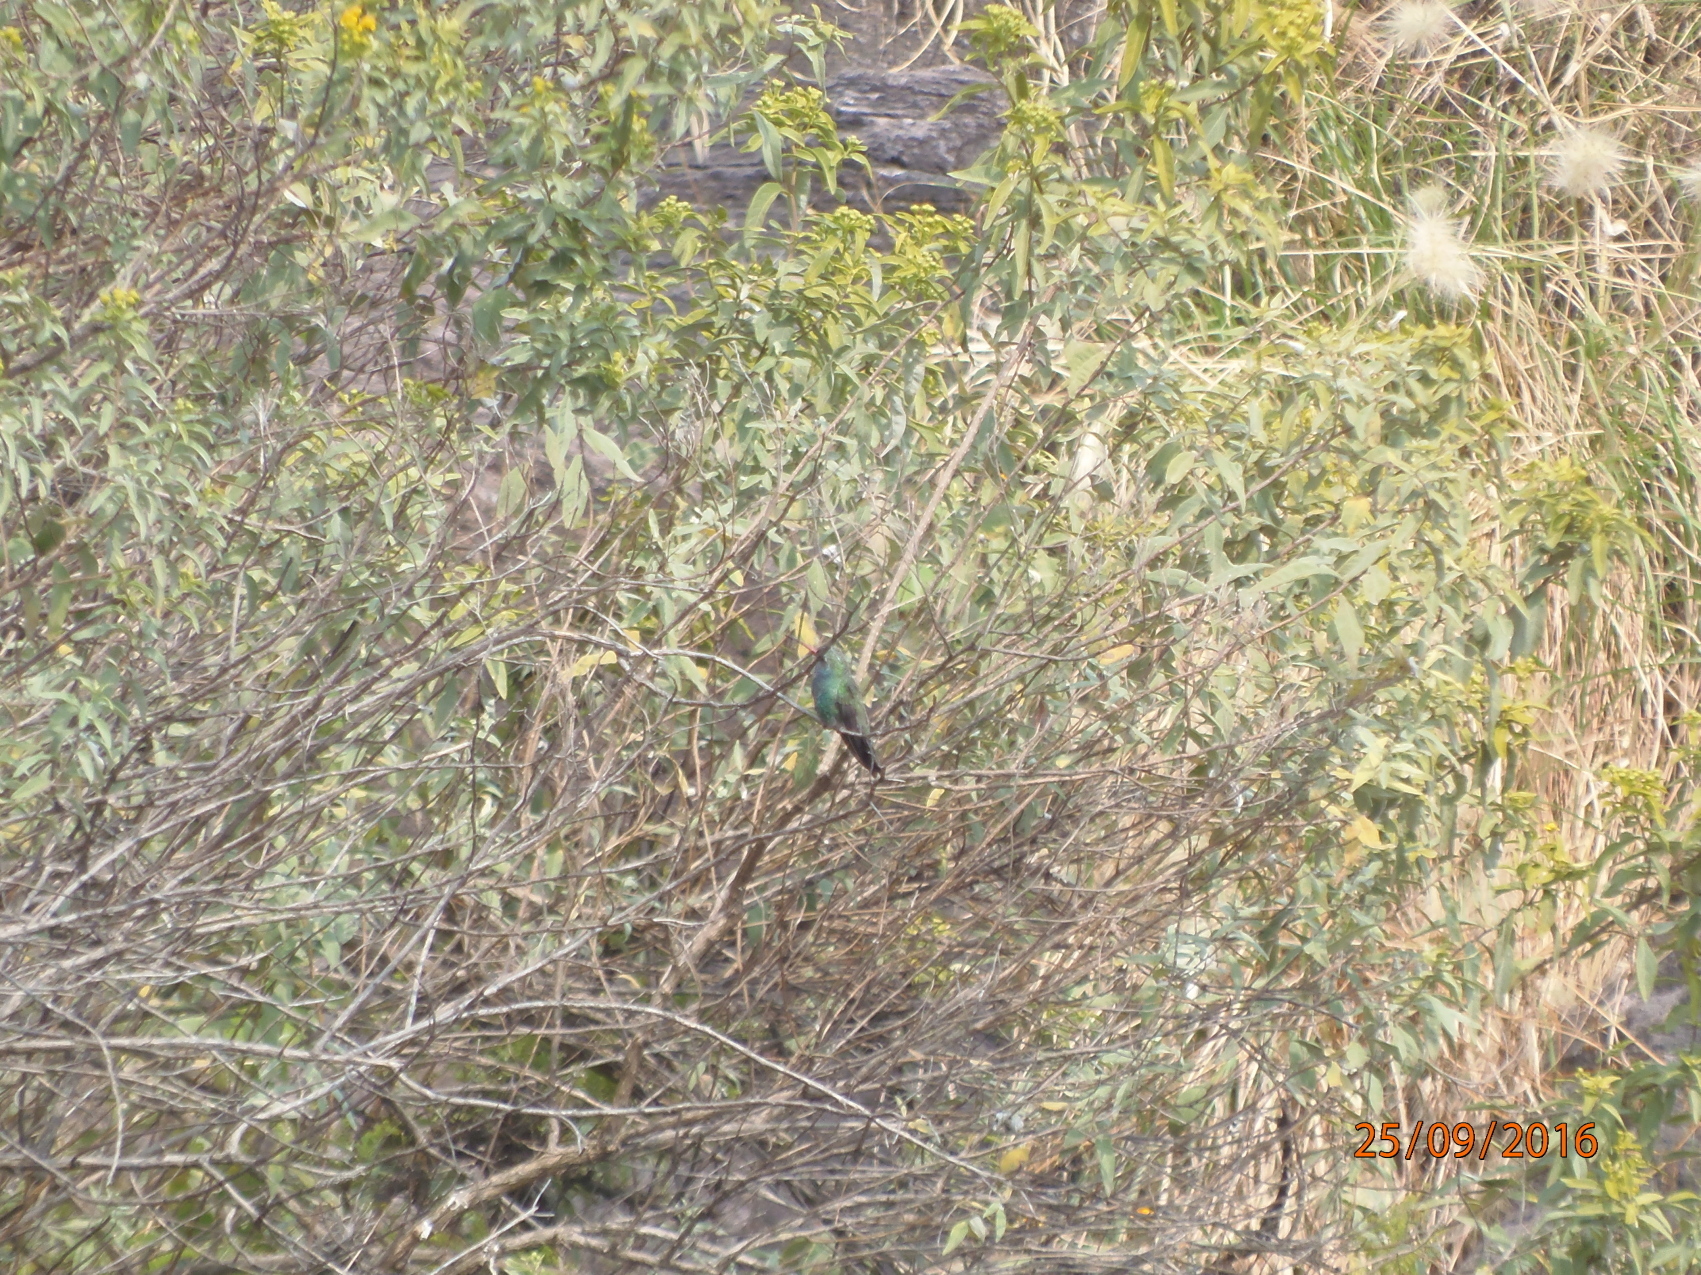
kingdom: Animalia
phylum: Chordata
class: Aves
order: Apodiformes
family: Trochilidae
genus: Cynanthus
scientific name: Cynanthus latirostris
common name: Broad-billed hummingbird
